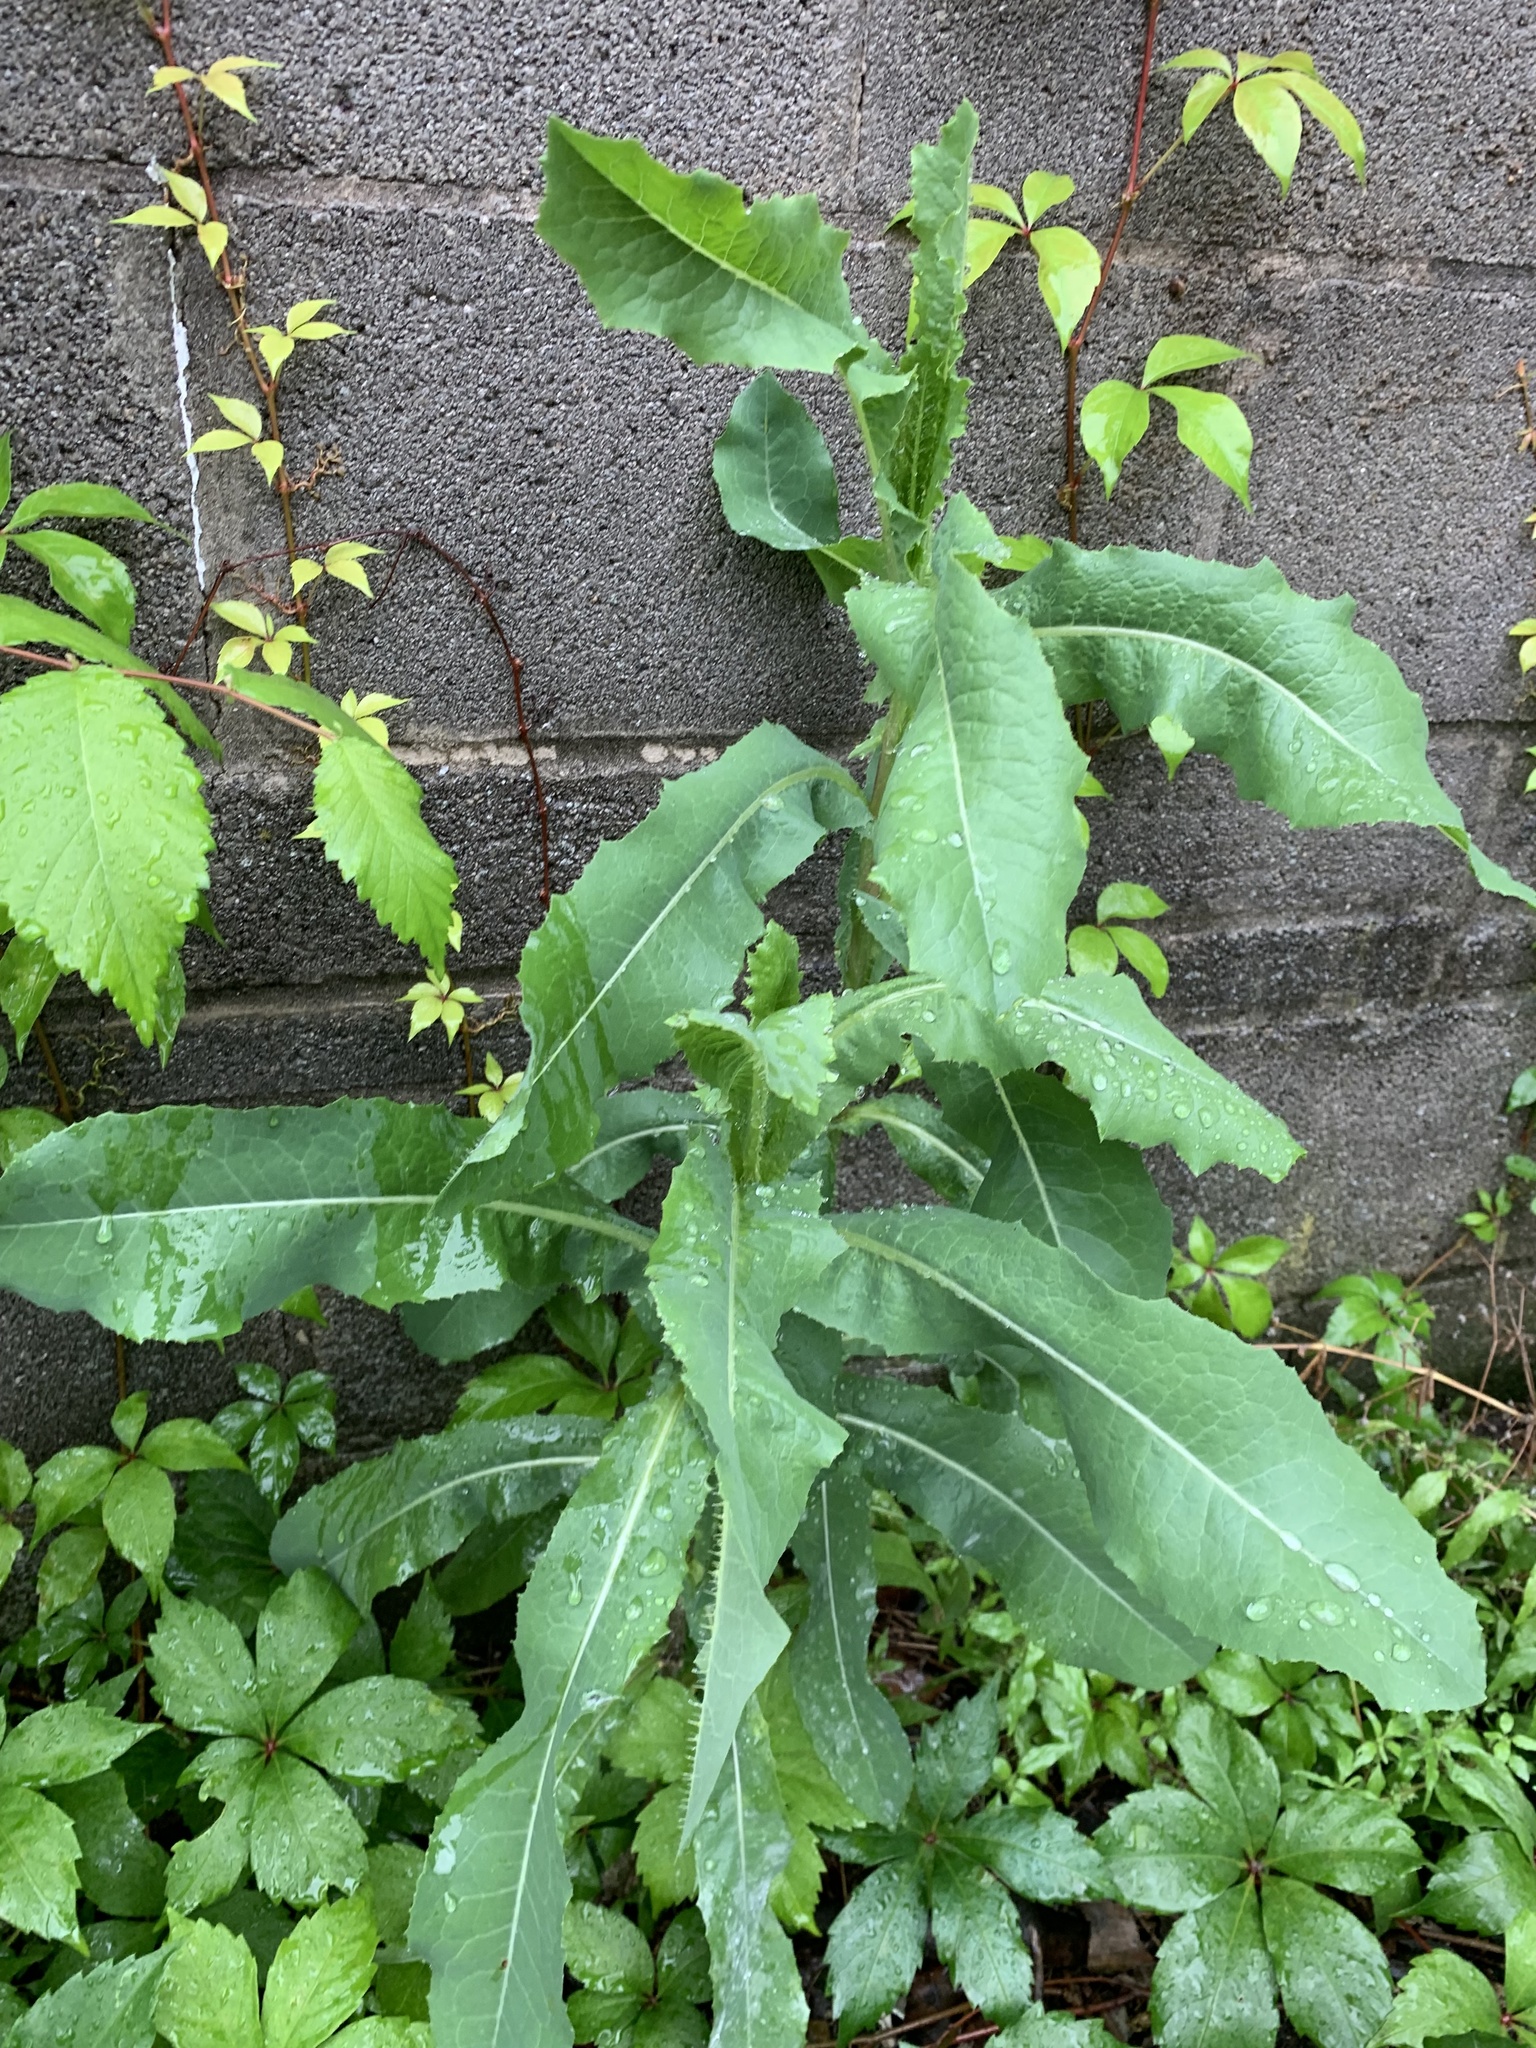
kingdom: Plantae
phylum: Tracheophyta
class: Magnoliopsida
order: Asterales
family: Asteraceae
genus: Lactuca
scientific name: Lactuca serriola
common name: Prickly lettuce
